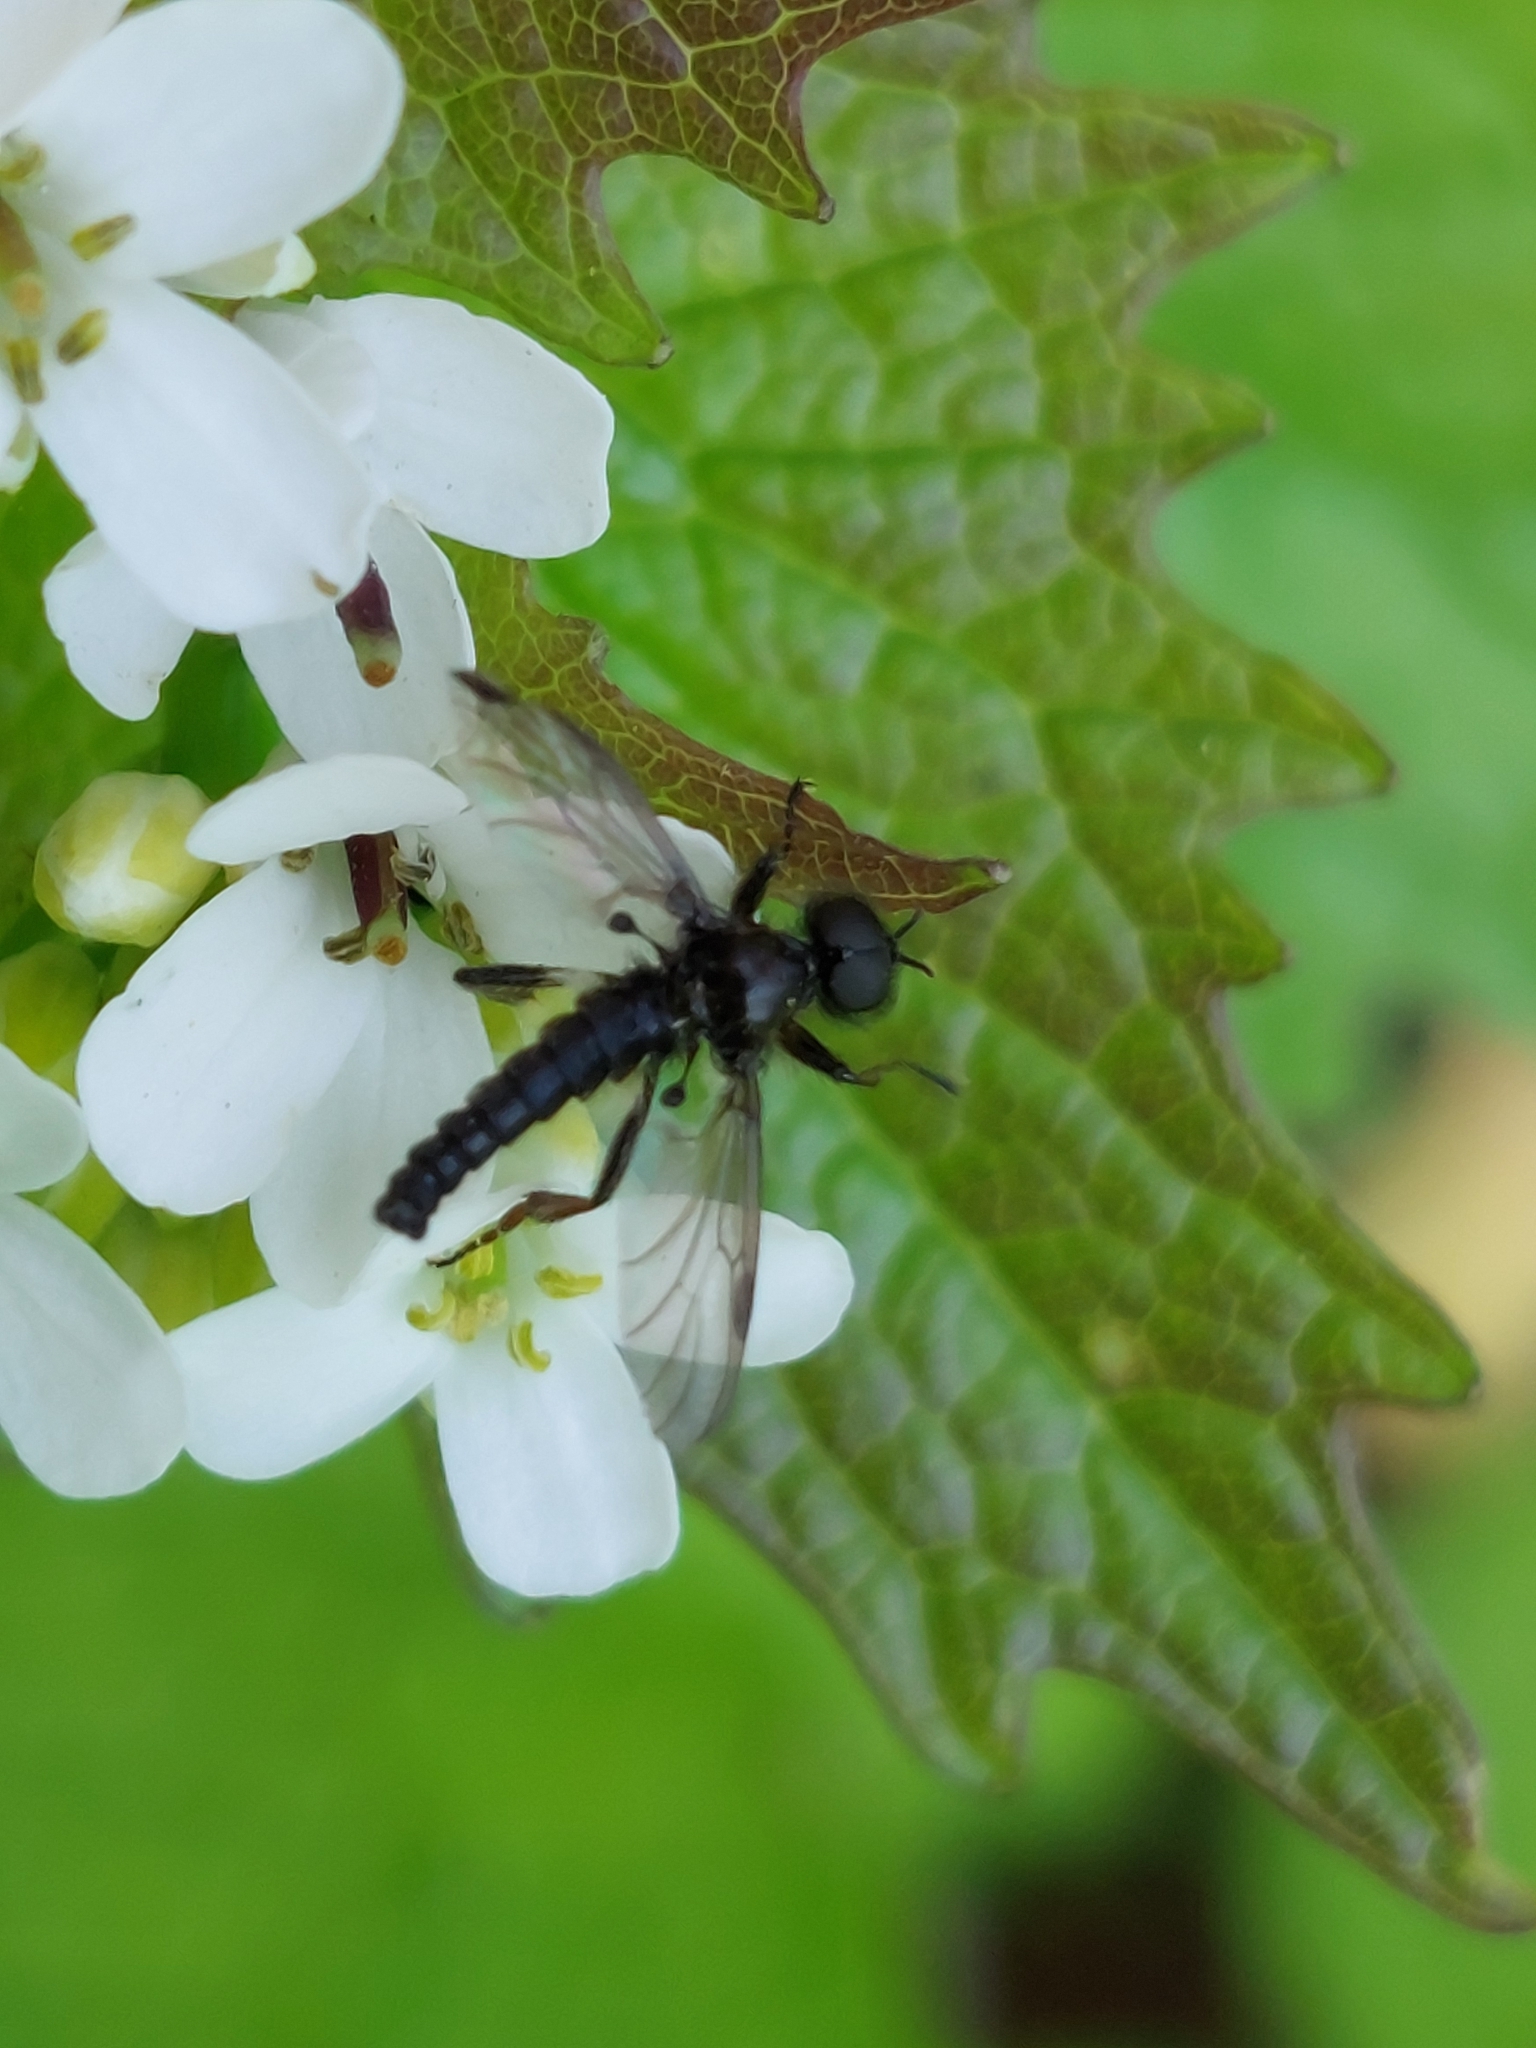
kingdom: Animalia
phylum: Arthropoda
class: Insecta
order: Diptera
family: Bibionidae
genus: Bibio
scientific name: Bibio marci
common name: St marks fly
